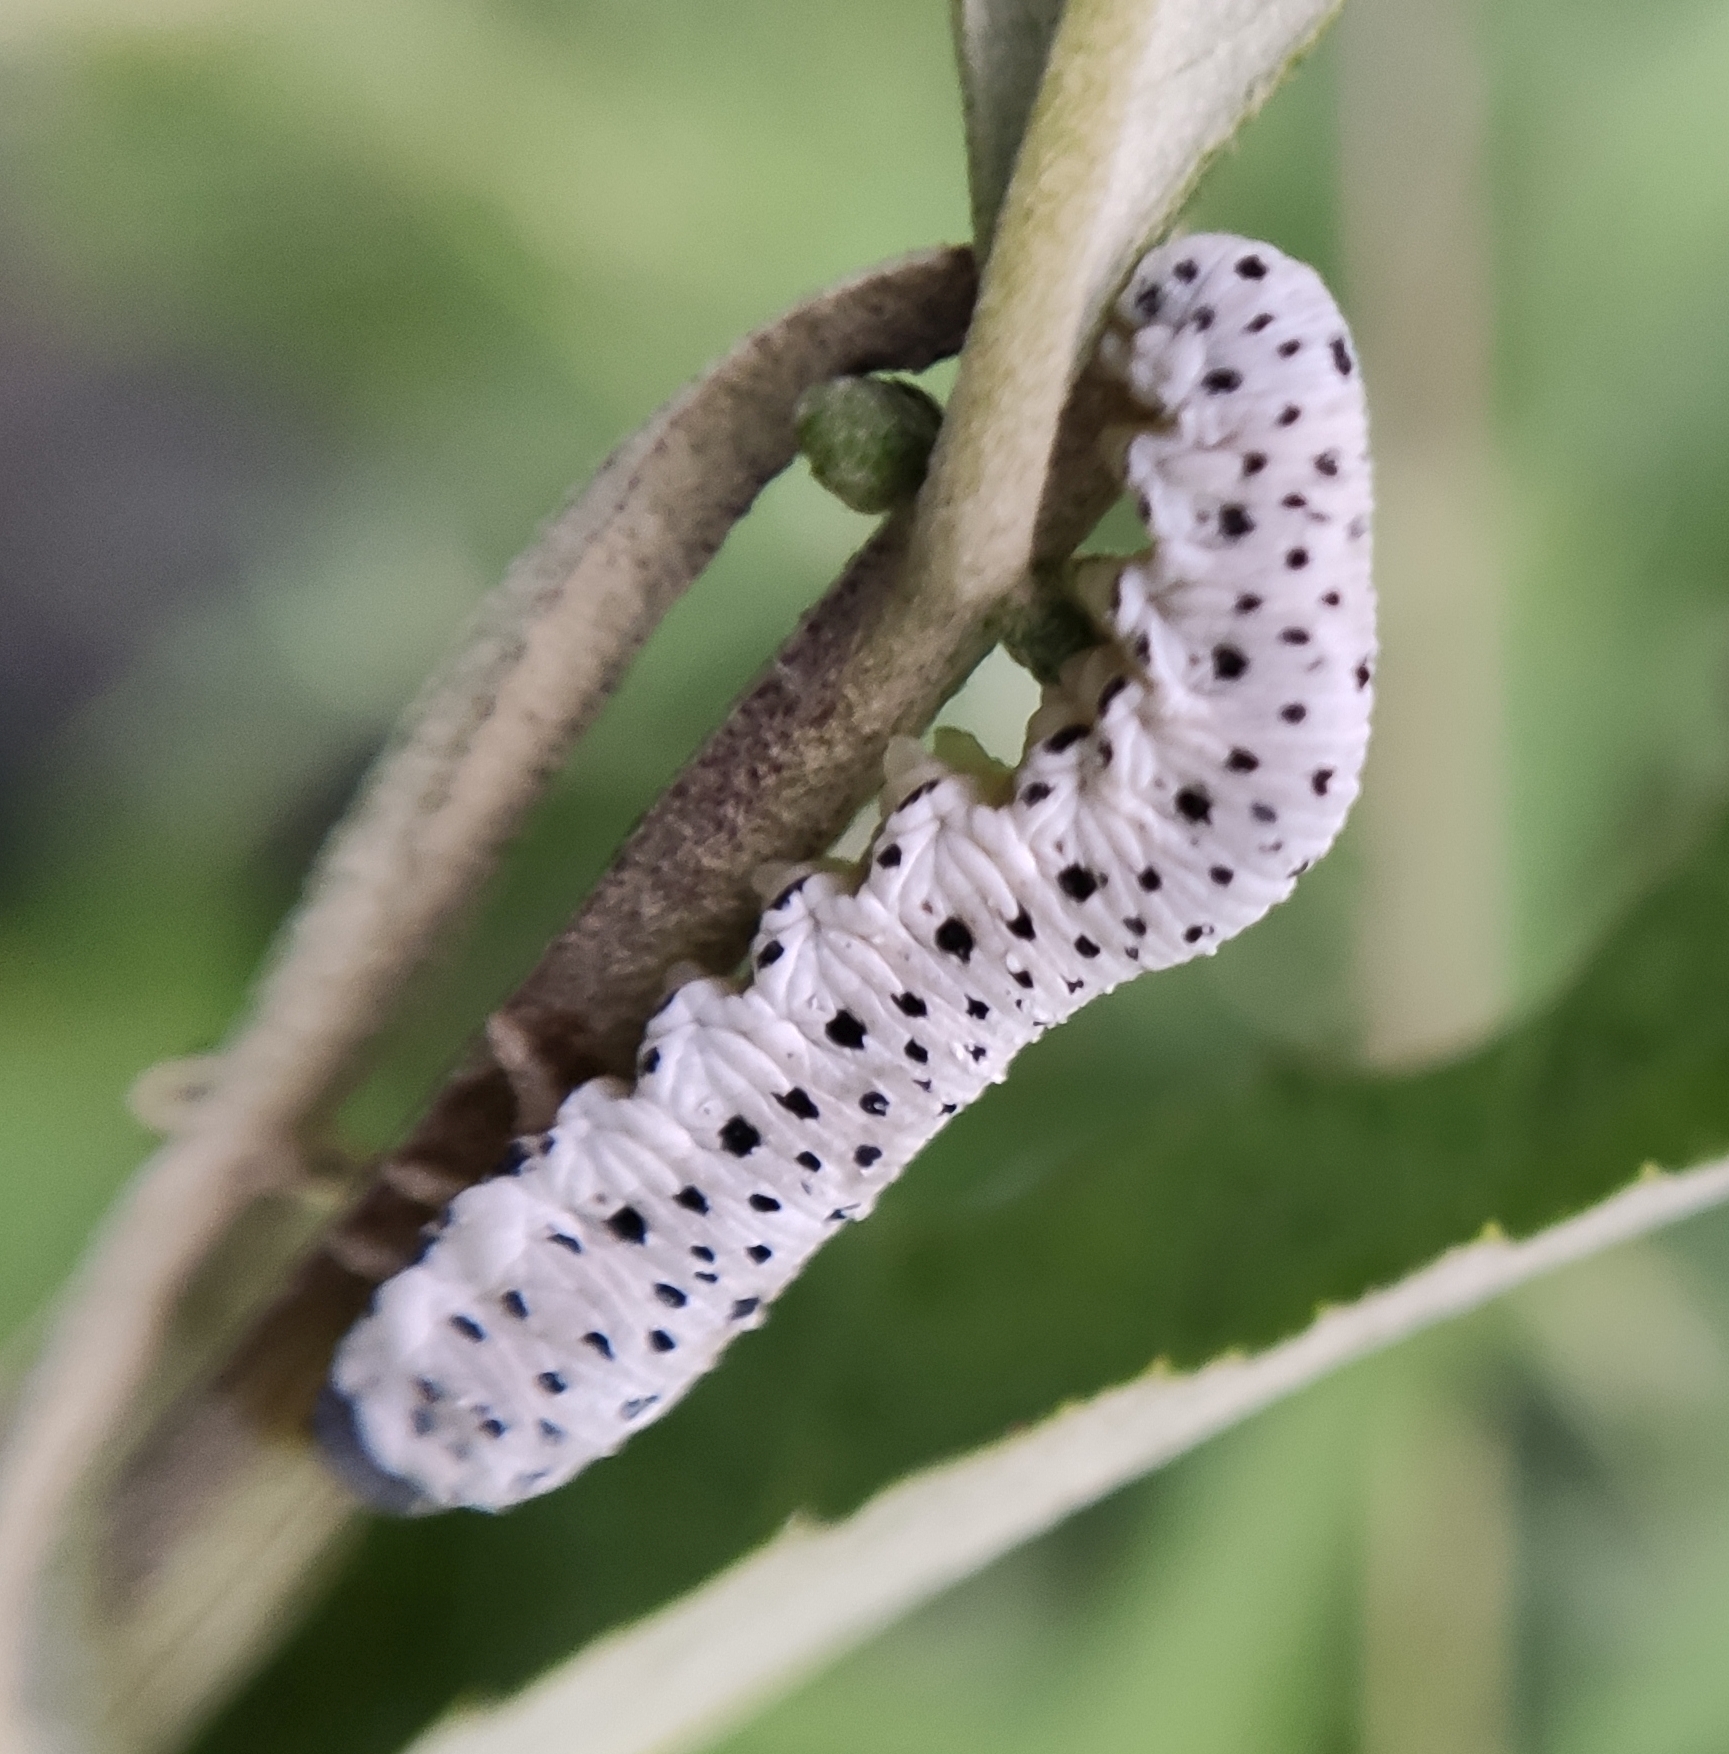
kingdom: Animalia
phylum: Arthropoda
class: Insecta
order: Hymenoptera
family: Tenthredinidae
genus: Tenthredo
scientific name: Tenthredo scrophulariae
